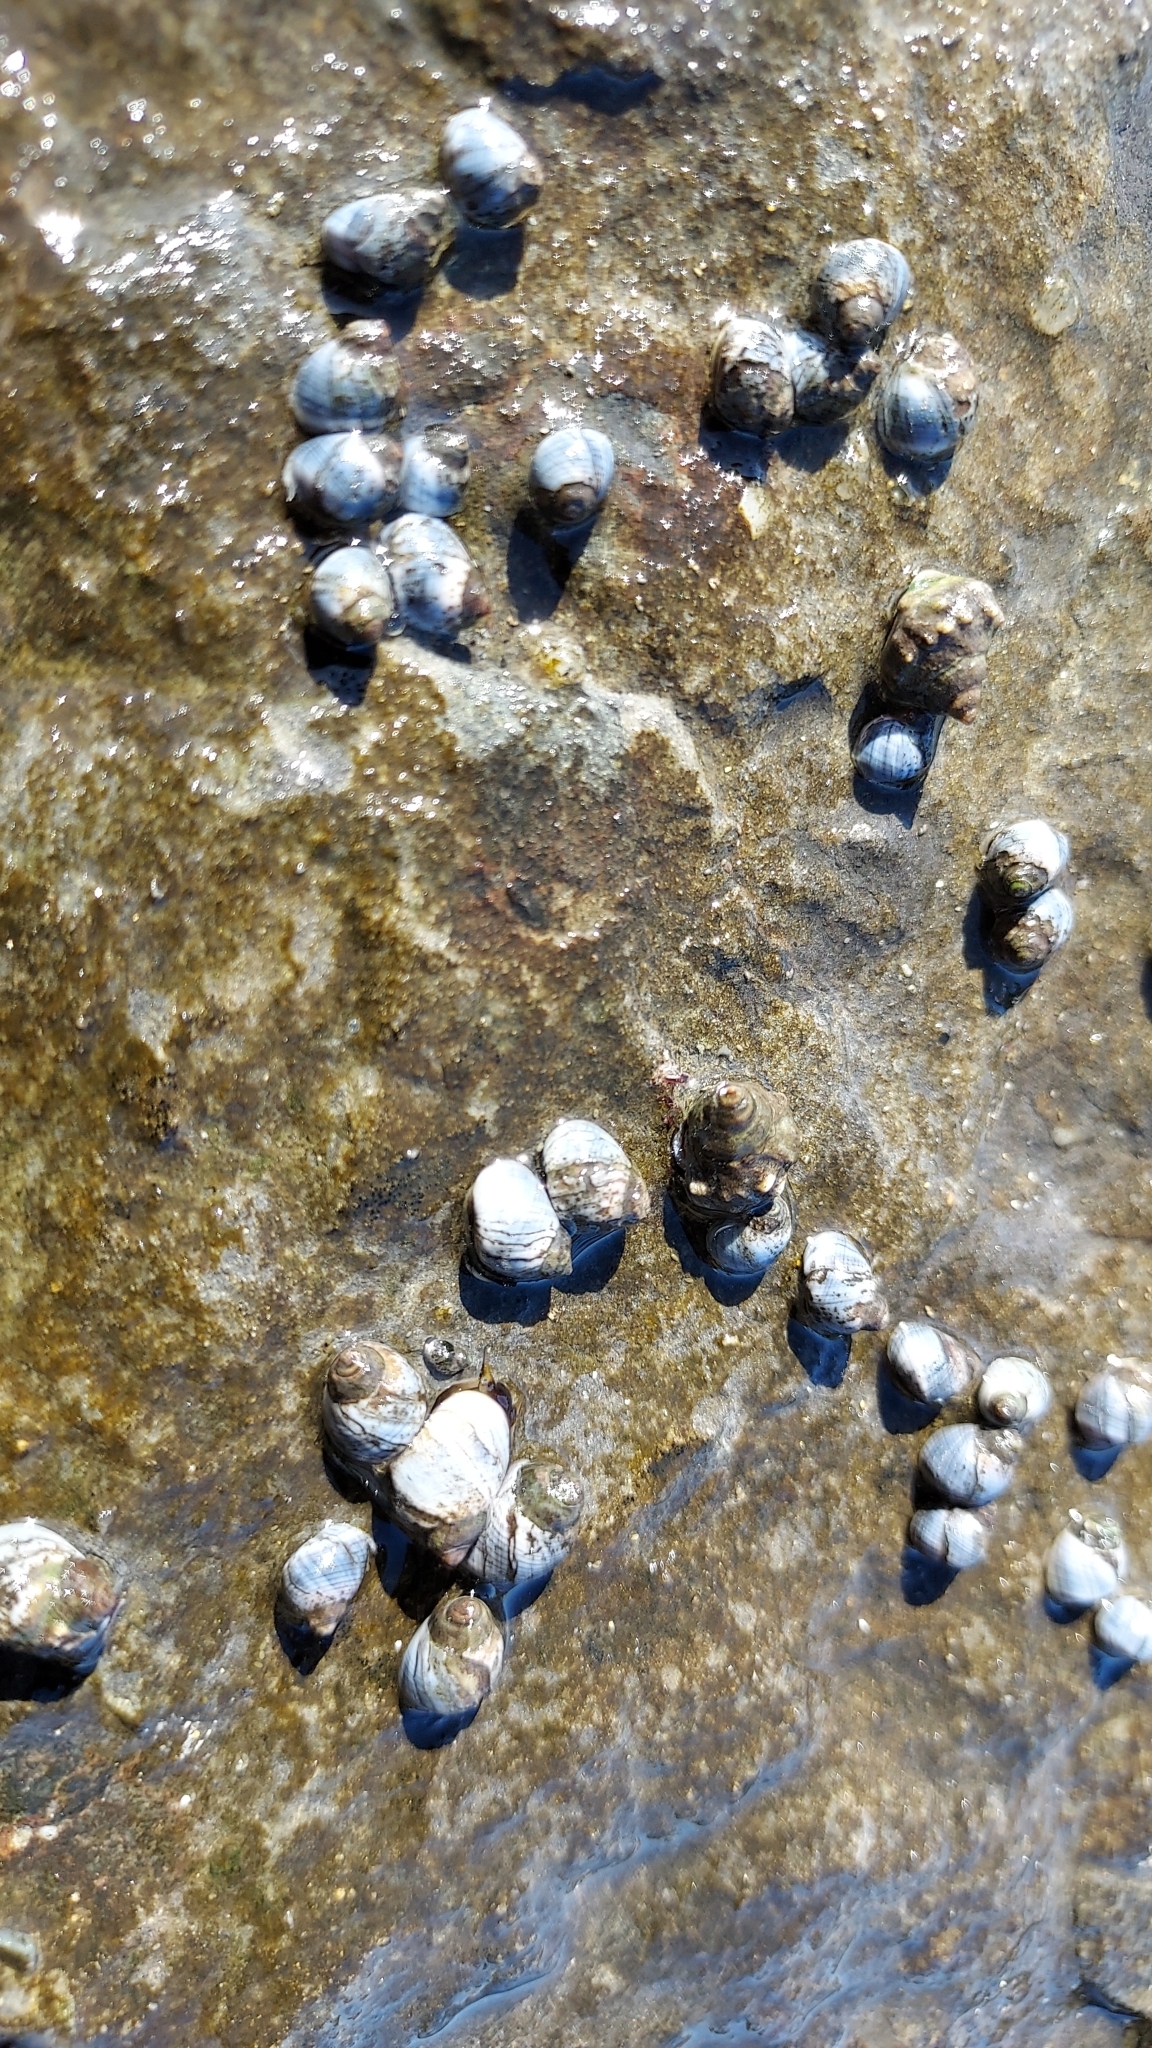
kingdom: Animalia
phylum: Mollusca
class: Gastropoda
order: Littorinimorpha
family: Littorinidae
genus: Austrolittorina
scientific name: Austrolittorina unifasciata
